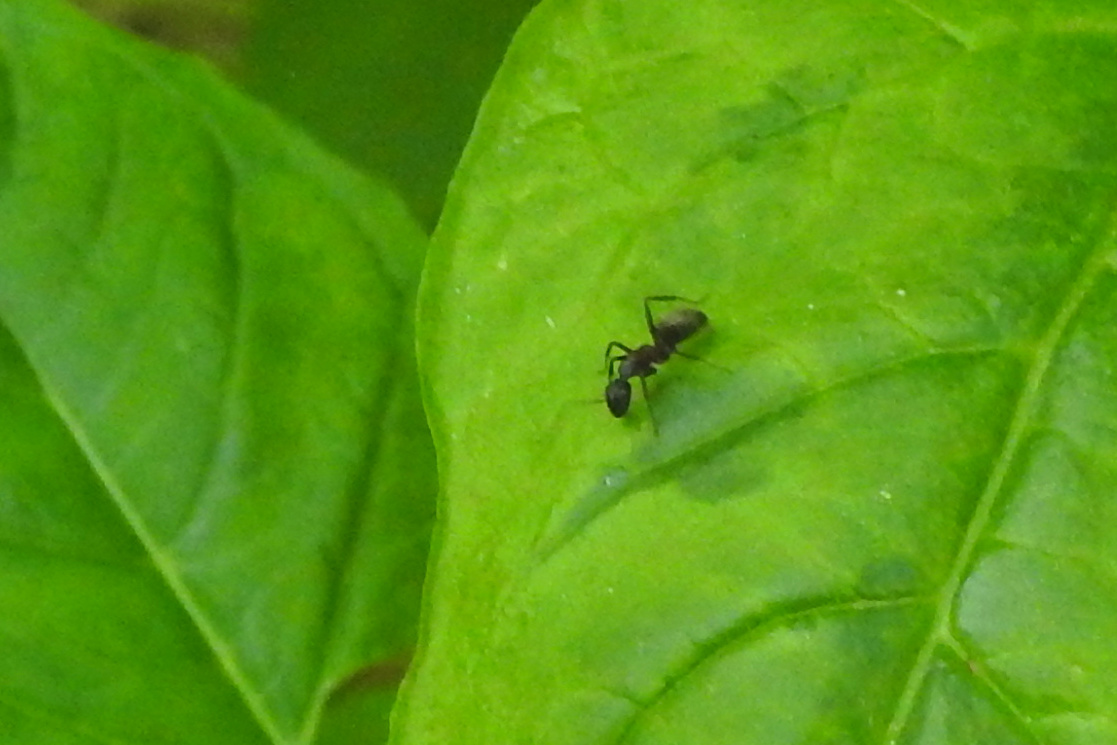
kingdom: Animalia
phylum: Arthropoda
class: Insecta
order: Hymenoptera
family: Formicidae
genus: Camponotus
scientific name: Camponotus chromaiodes
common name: Red carpenter ant
